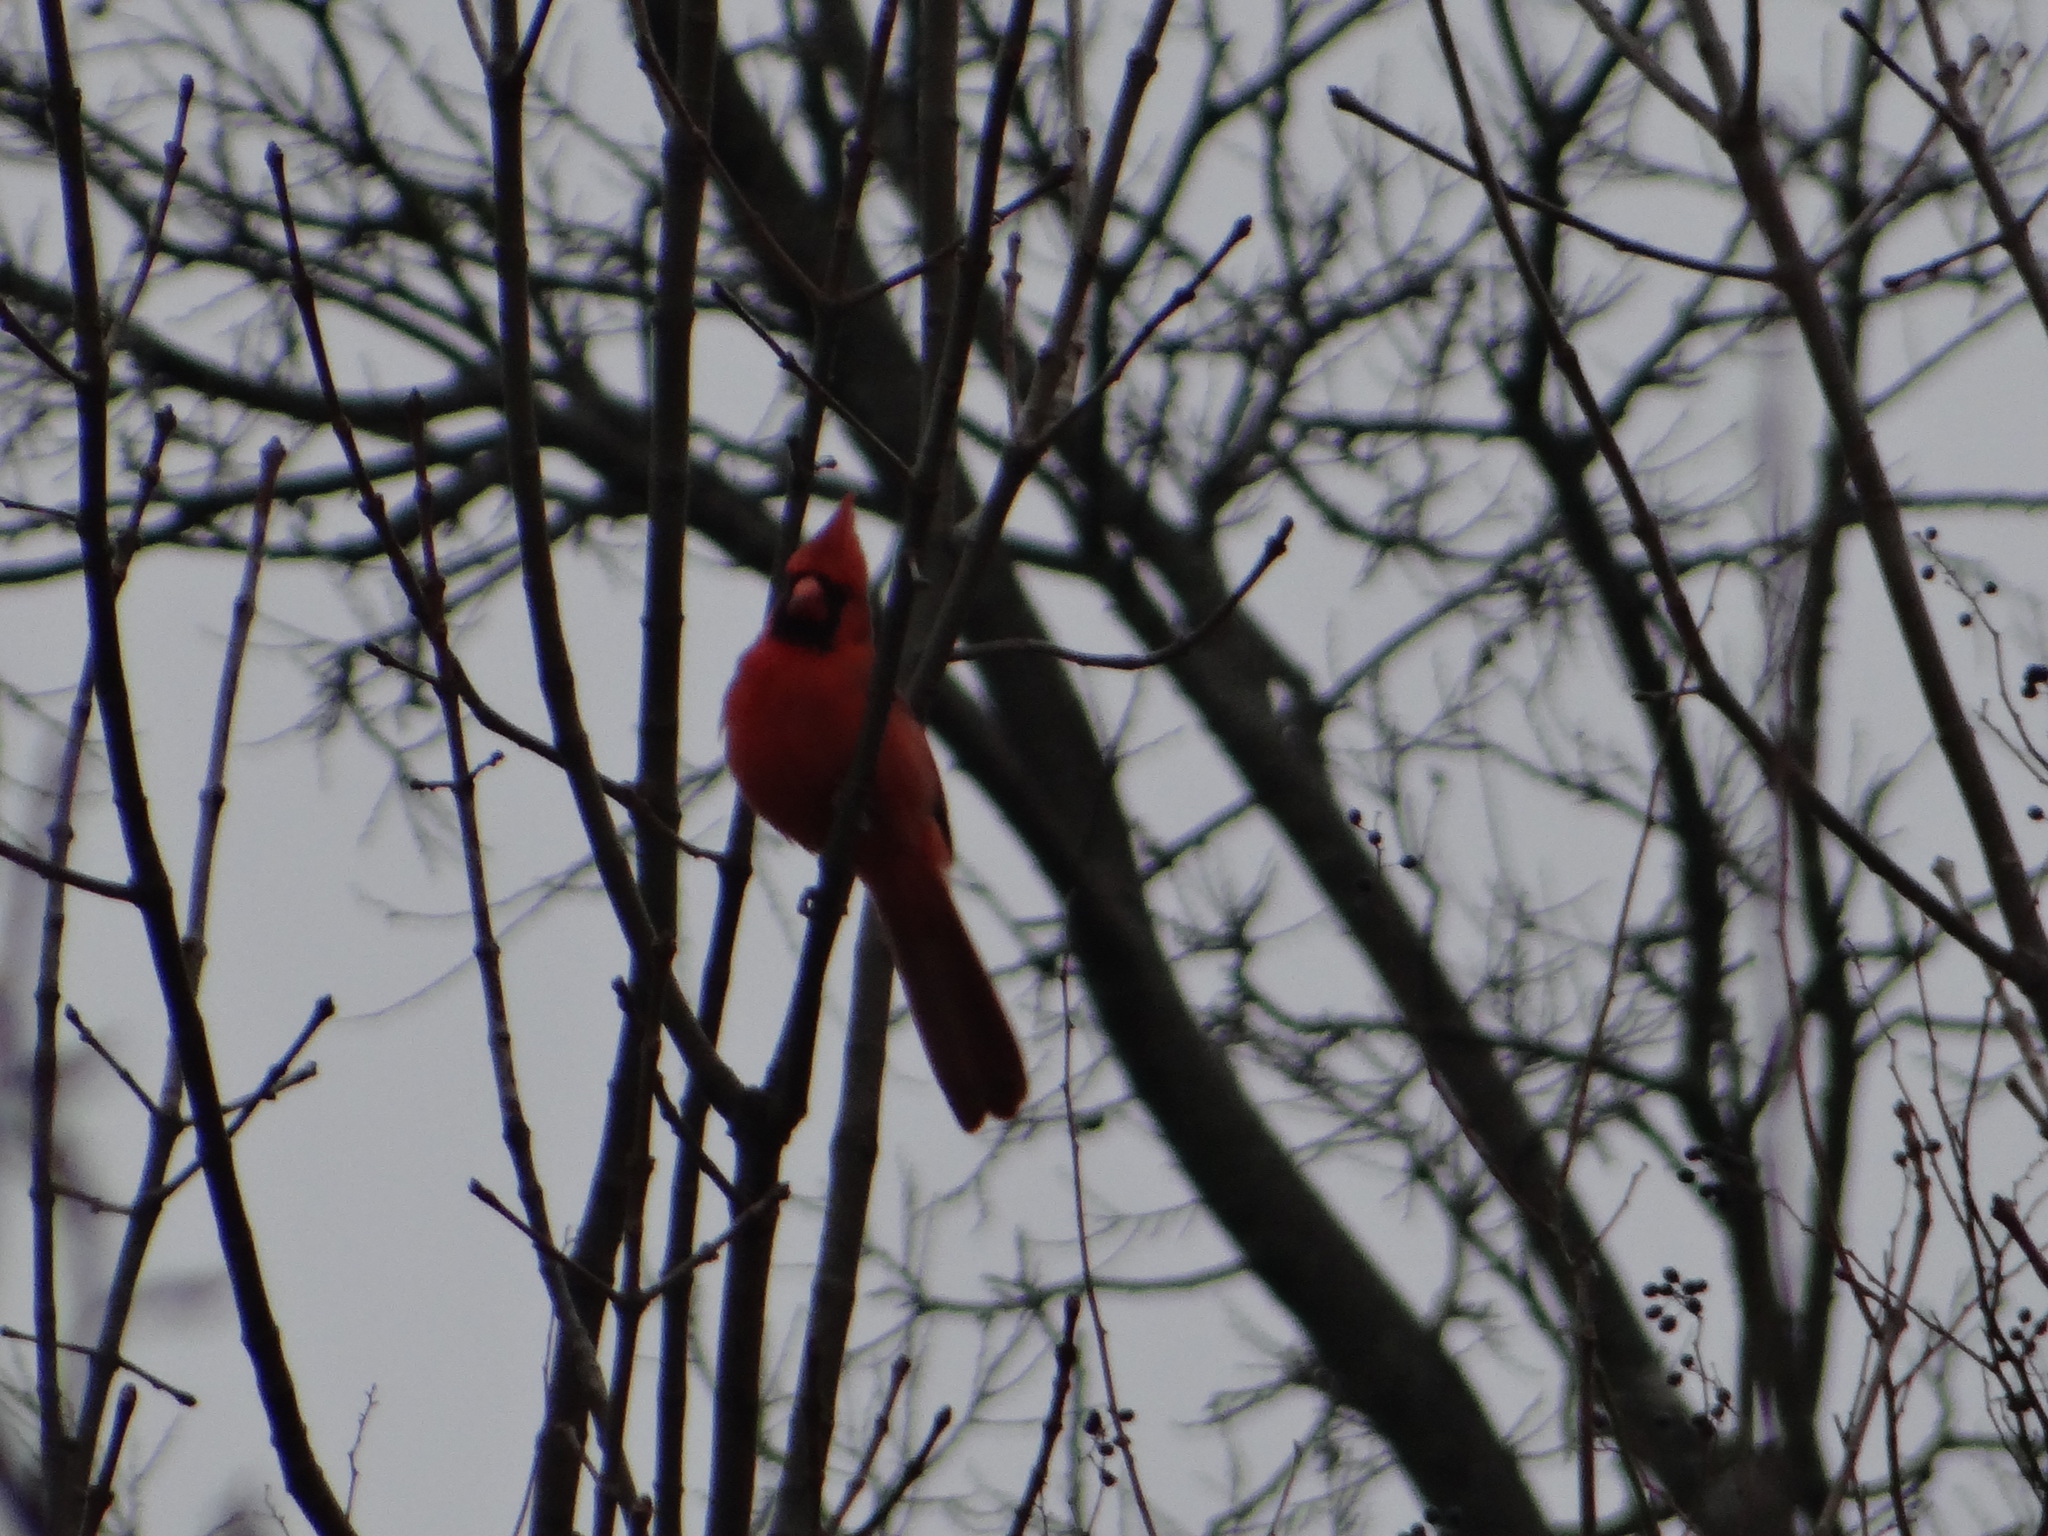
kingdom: Animalia
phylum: Chordata
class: Aves
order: Passeriformes
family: Cardinalidae
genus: Cardinalis
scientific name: Cardinalis cardinalis
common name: Northern cardinal
